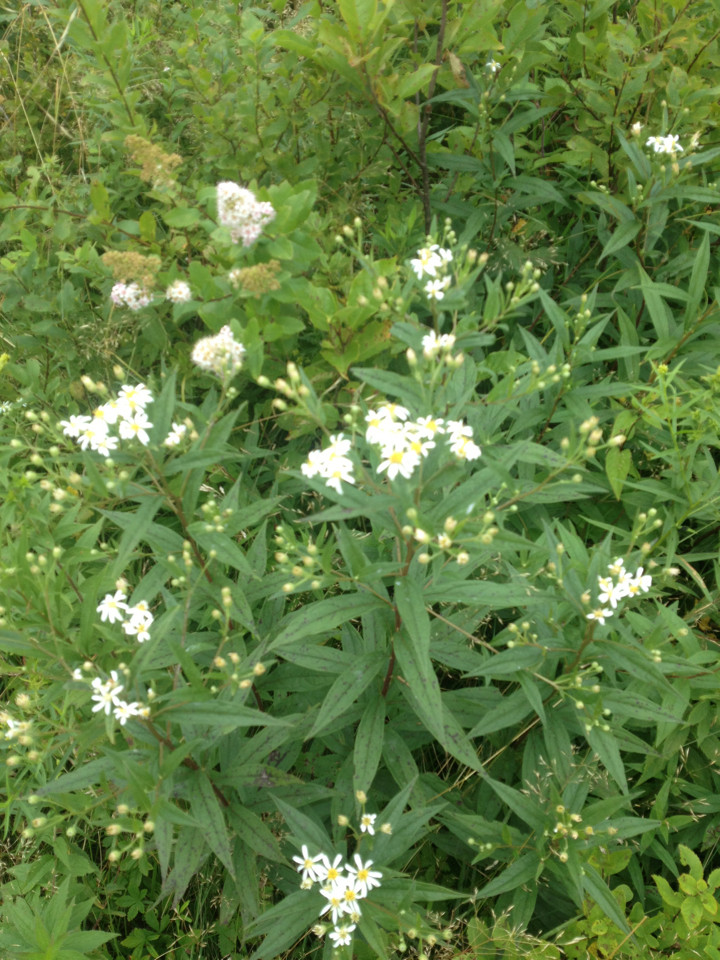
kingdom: Plantae
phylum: Tracheophyta
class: Magnoliopsida
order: Asterales
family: Asteraceae
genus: Doellingeria
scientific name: Doellingeria umbellata
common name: Flat-top white aster
